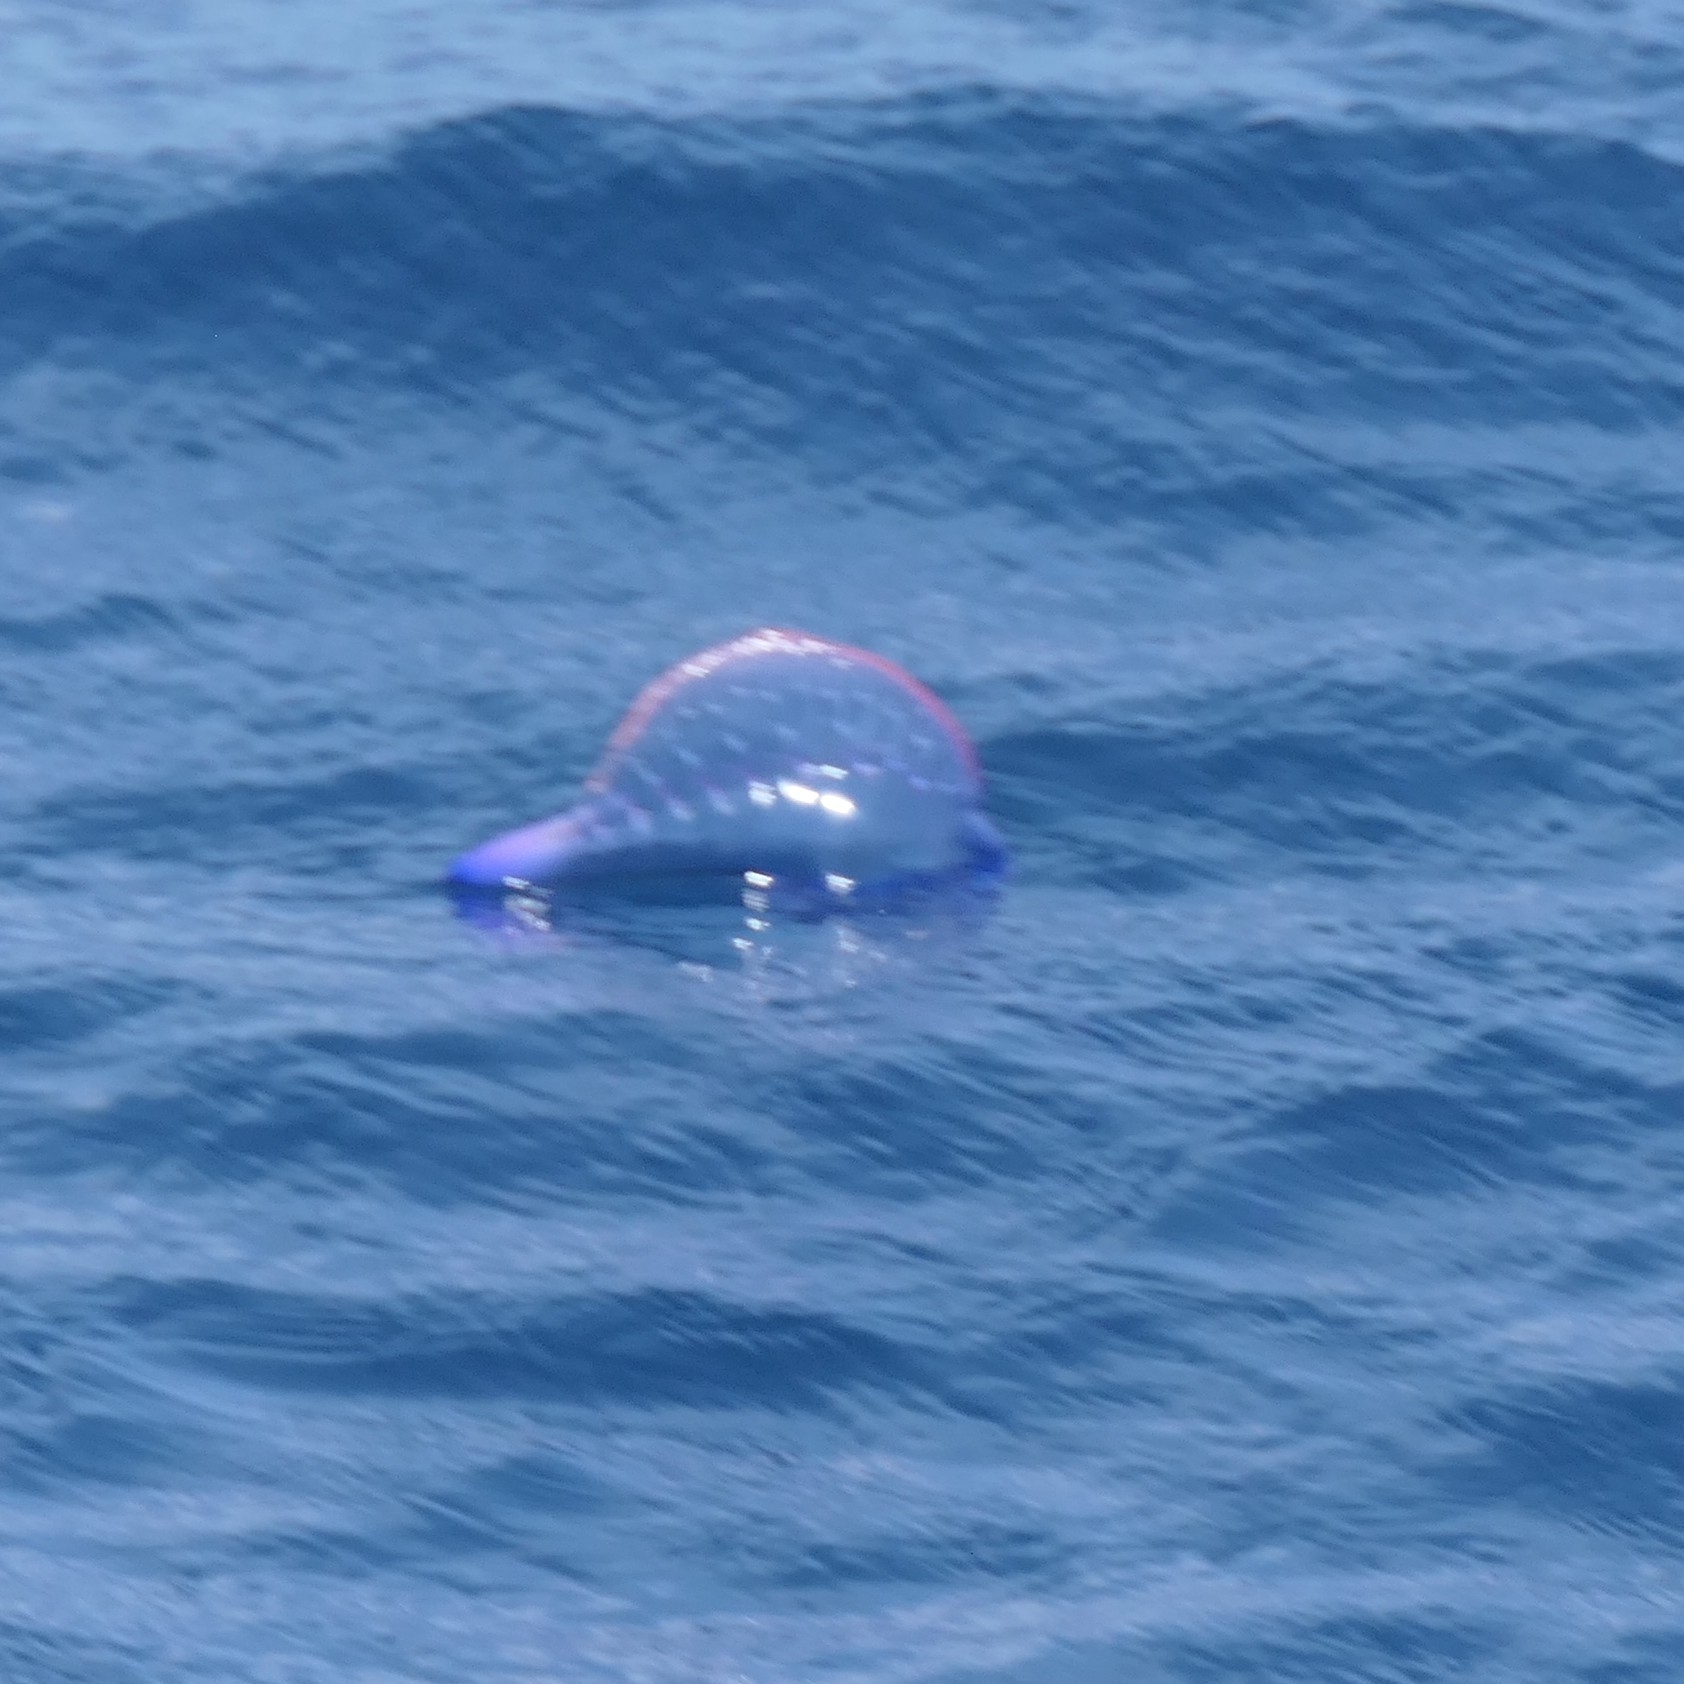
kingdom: Animalia
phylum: Cnidaria
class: Hydrozoa
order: Siphonophorae
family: Physaliidae
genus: Physalia
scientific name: Physalia physalis
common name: Portuguese man-of-war
